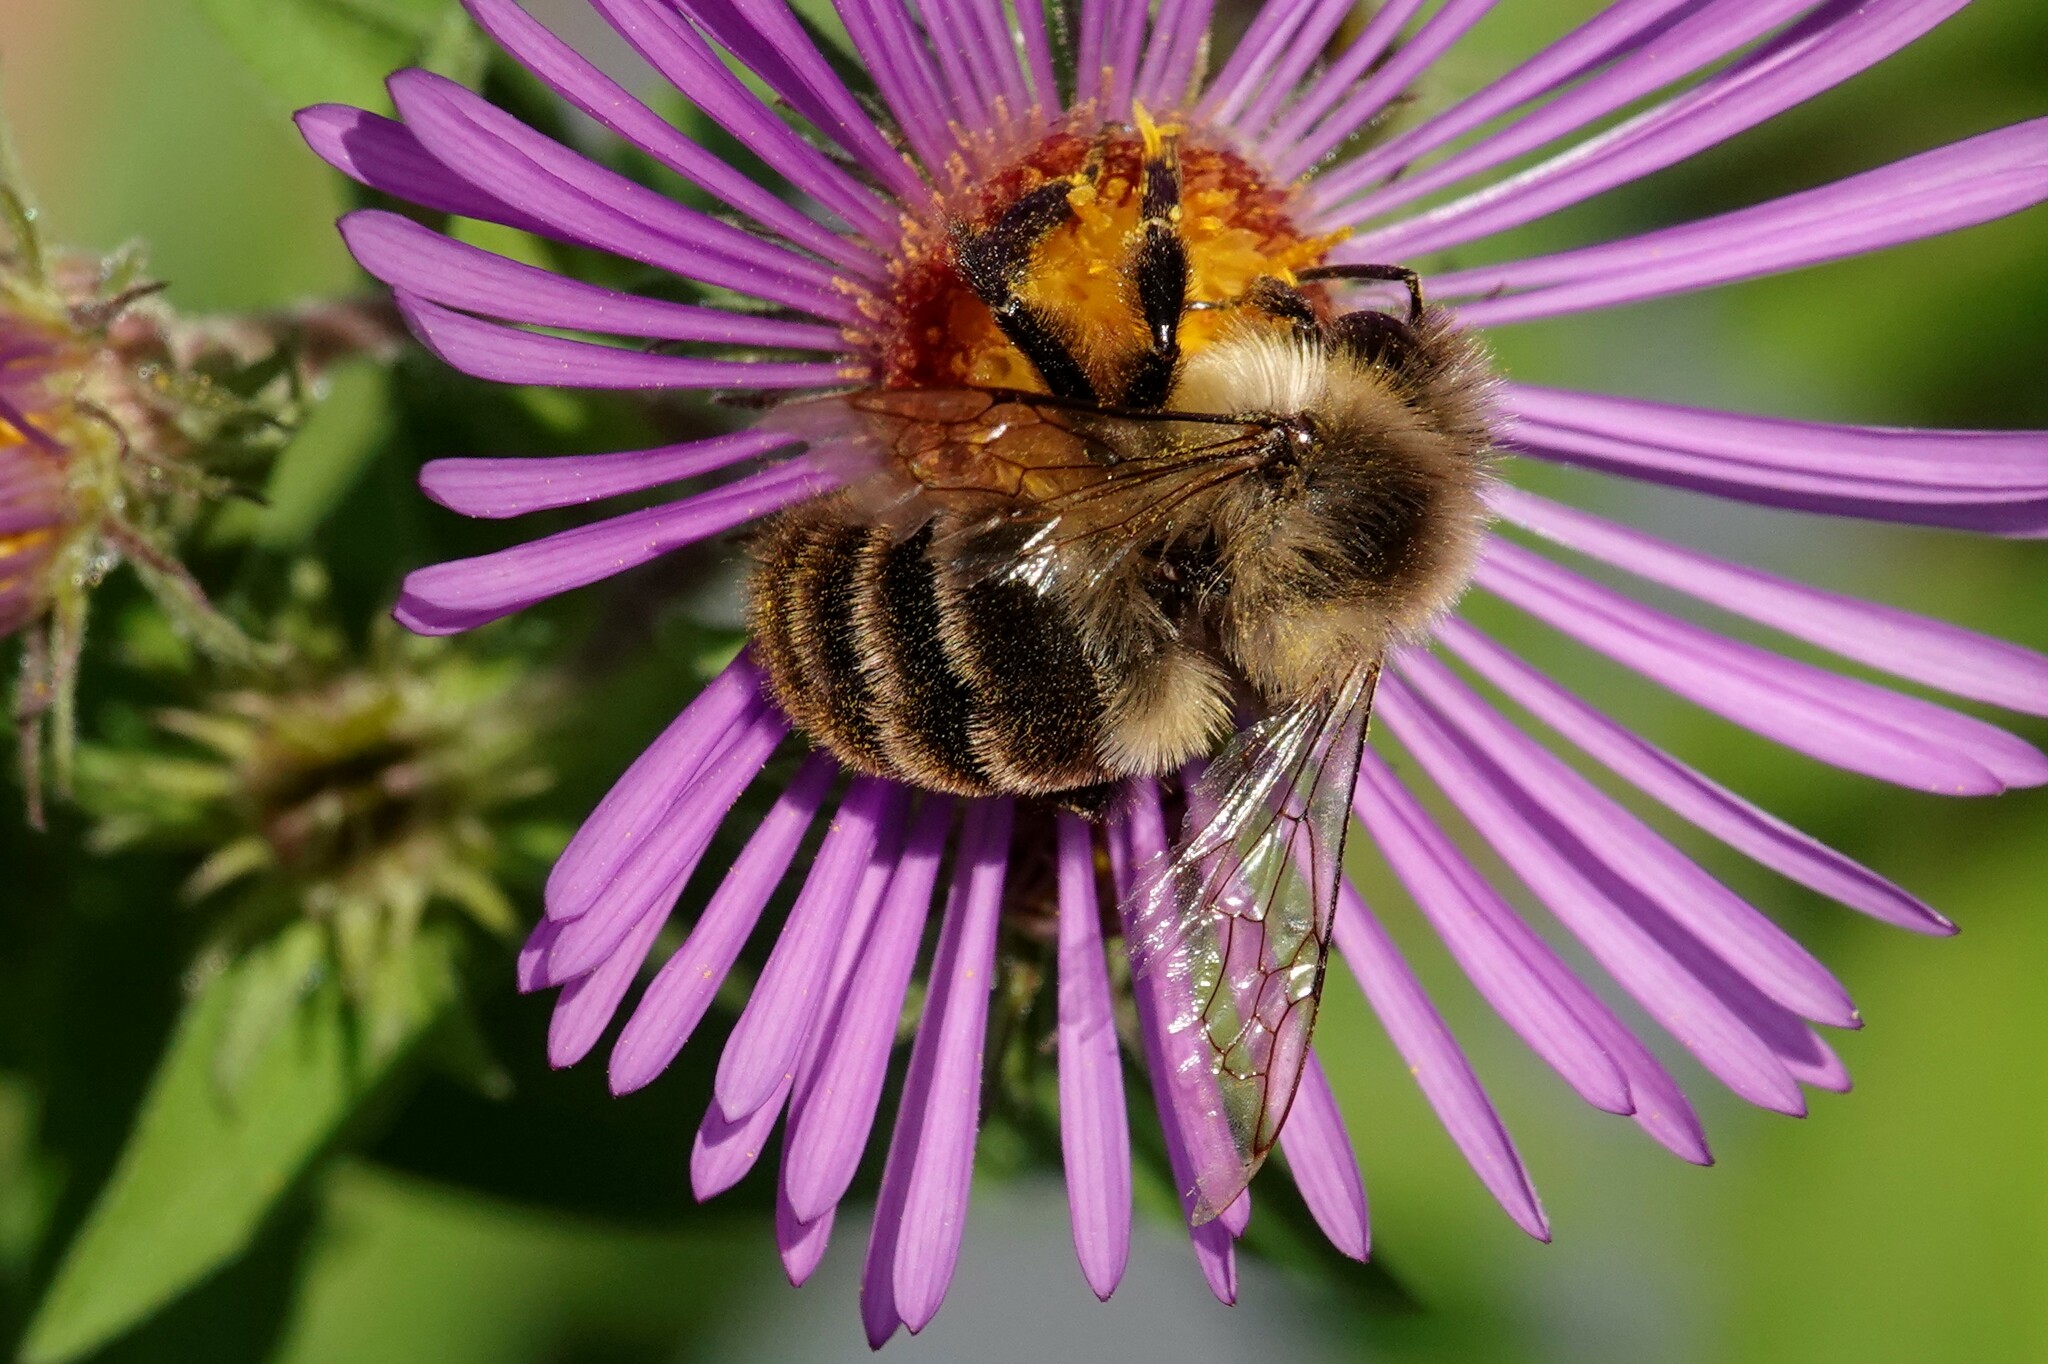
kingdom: Animalia
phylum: Arthropoda
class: Insecta
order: Hymenoptera
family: Apidae
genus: Bombus
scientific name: Bombus impatiens
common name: Common eastern bumble bee
